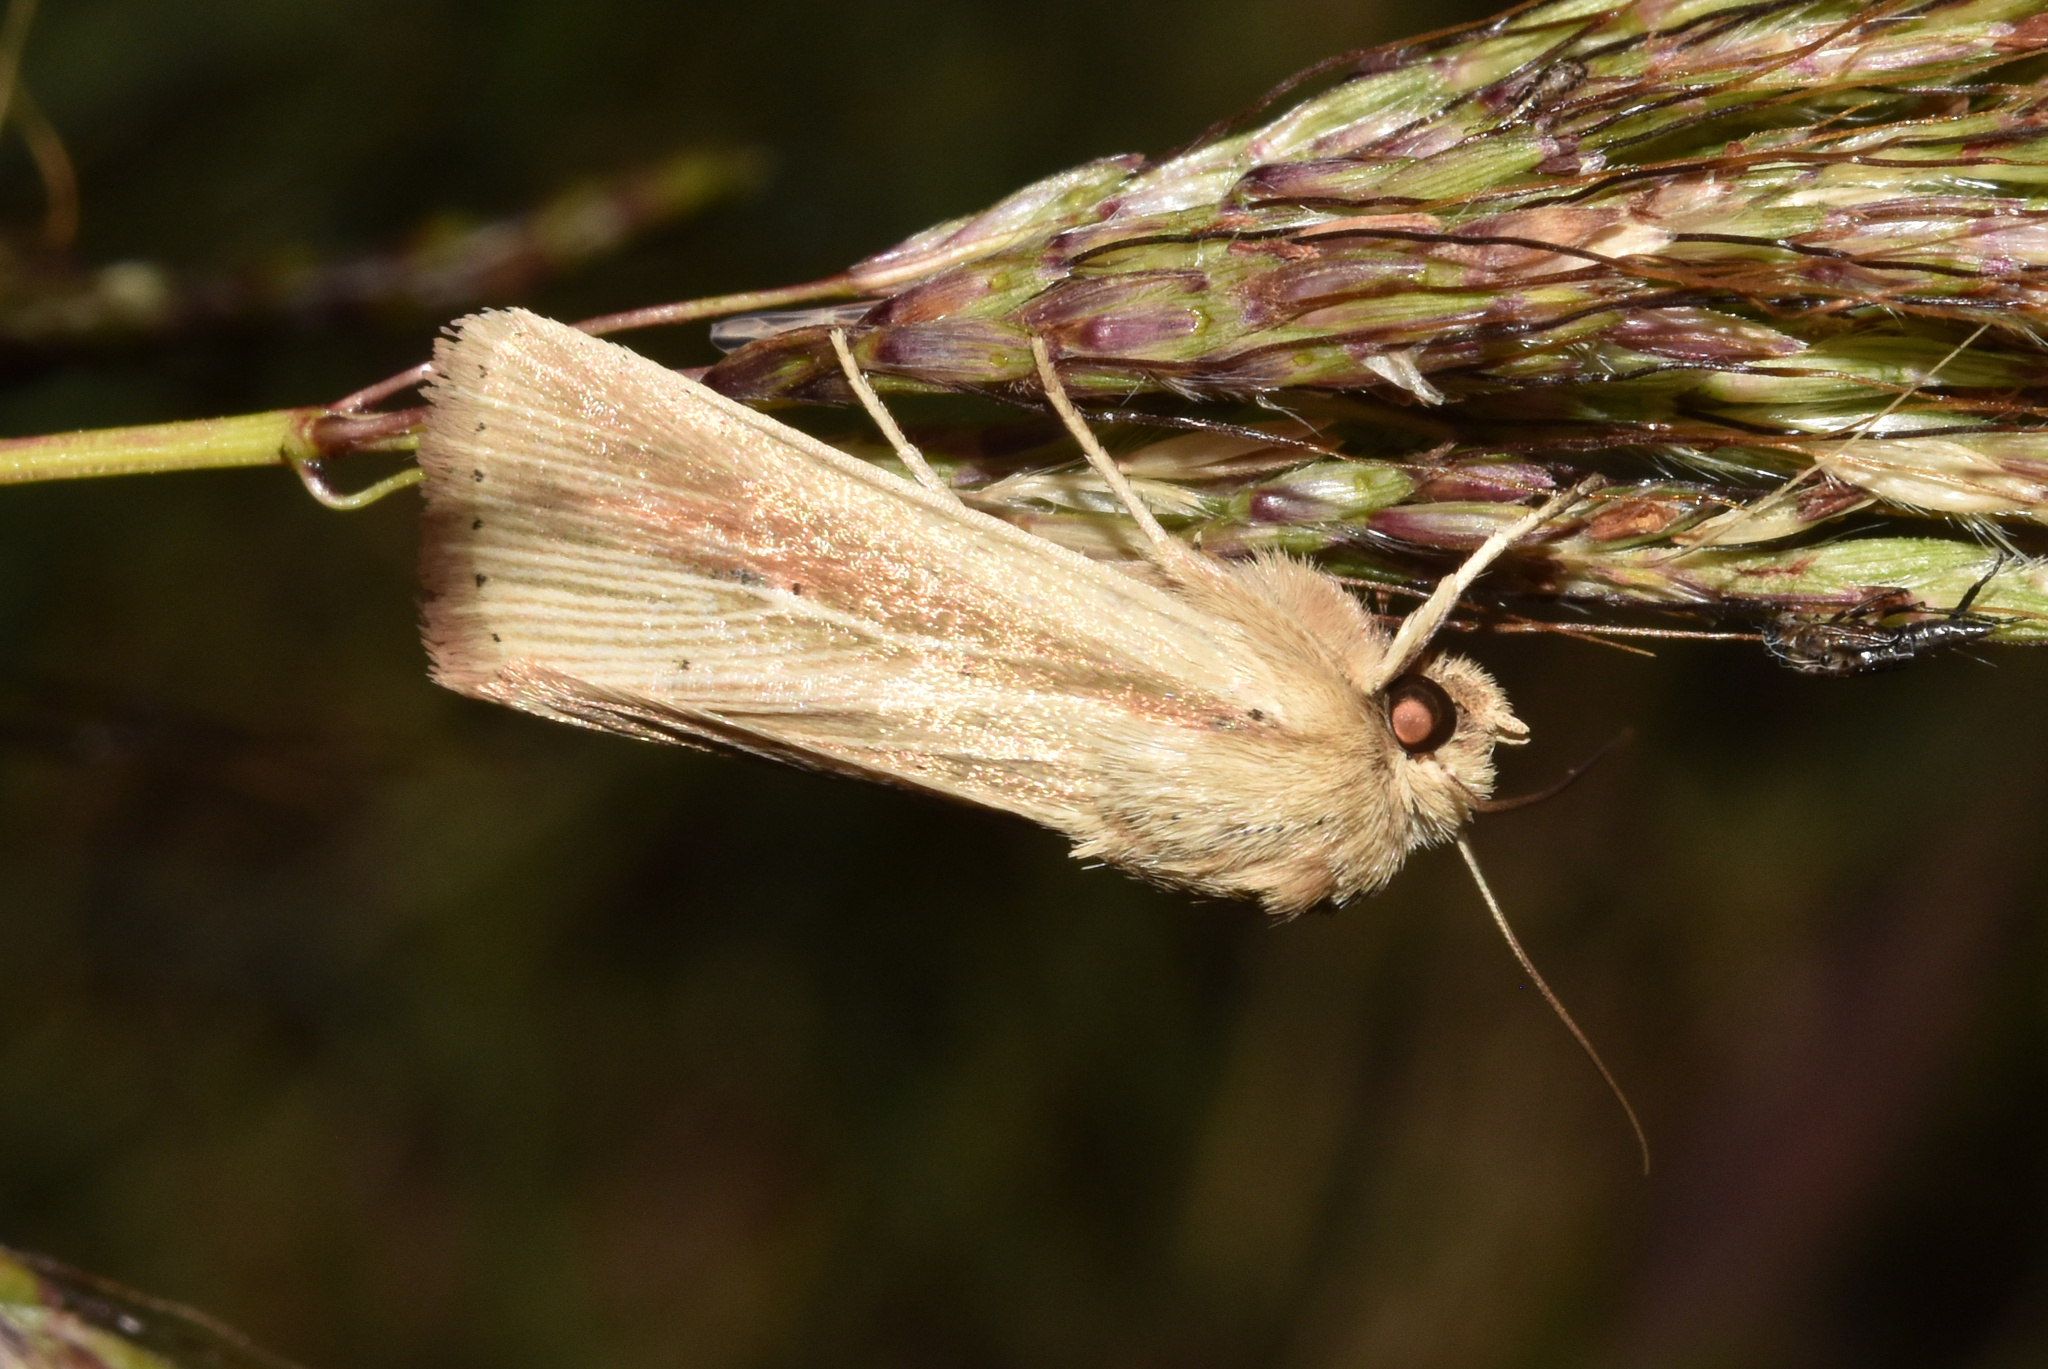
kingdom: Animalia
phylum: Arthropoda
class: Insecta
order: Lepidoptera
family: Noctuidae
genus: Vietteania
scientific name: Vietteania torrentium
